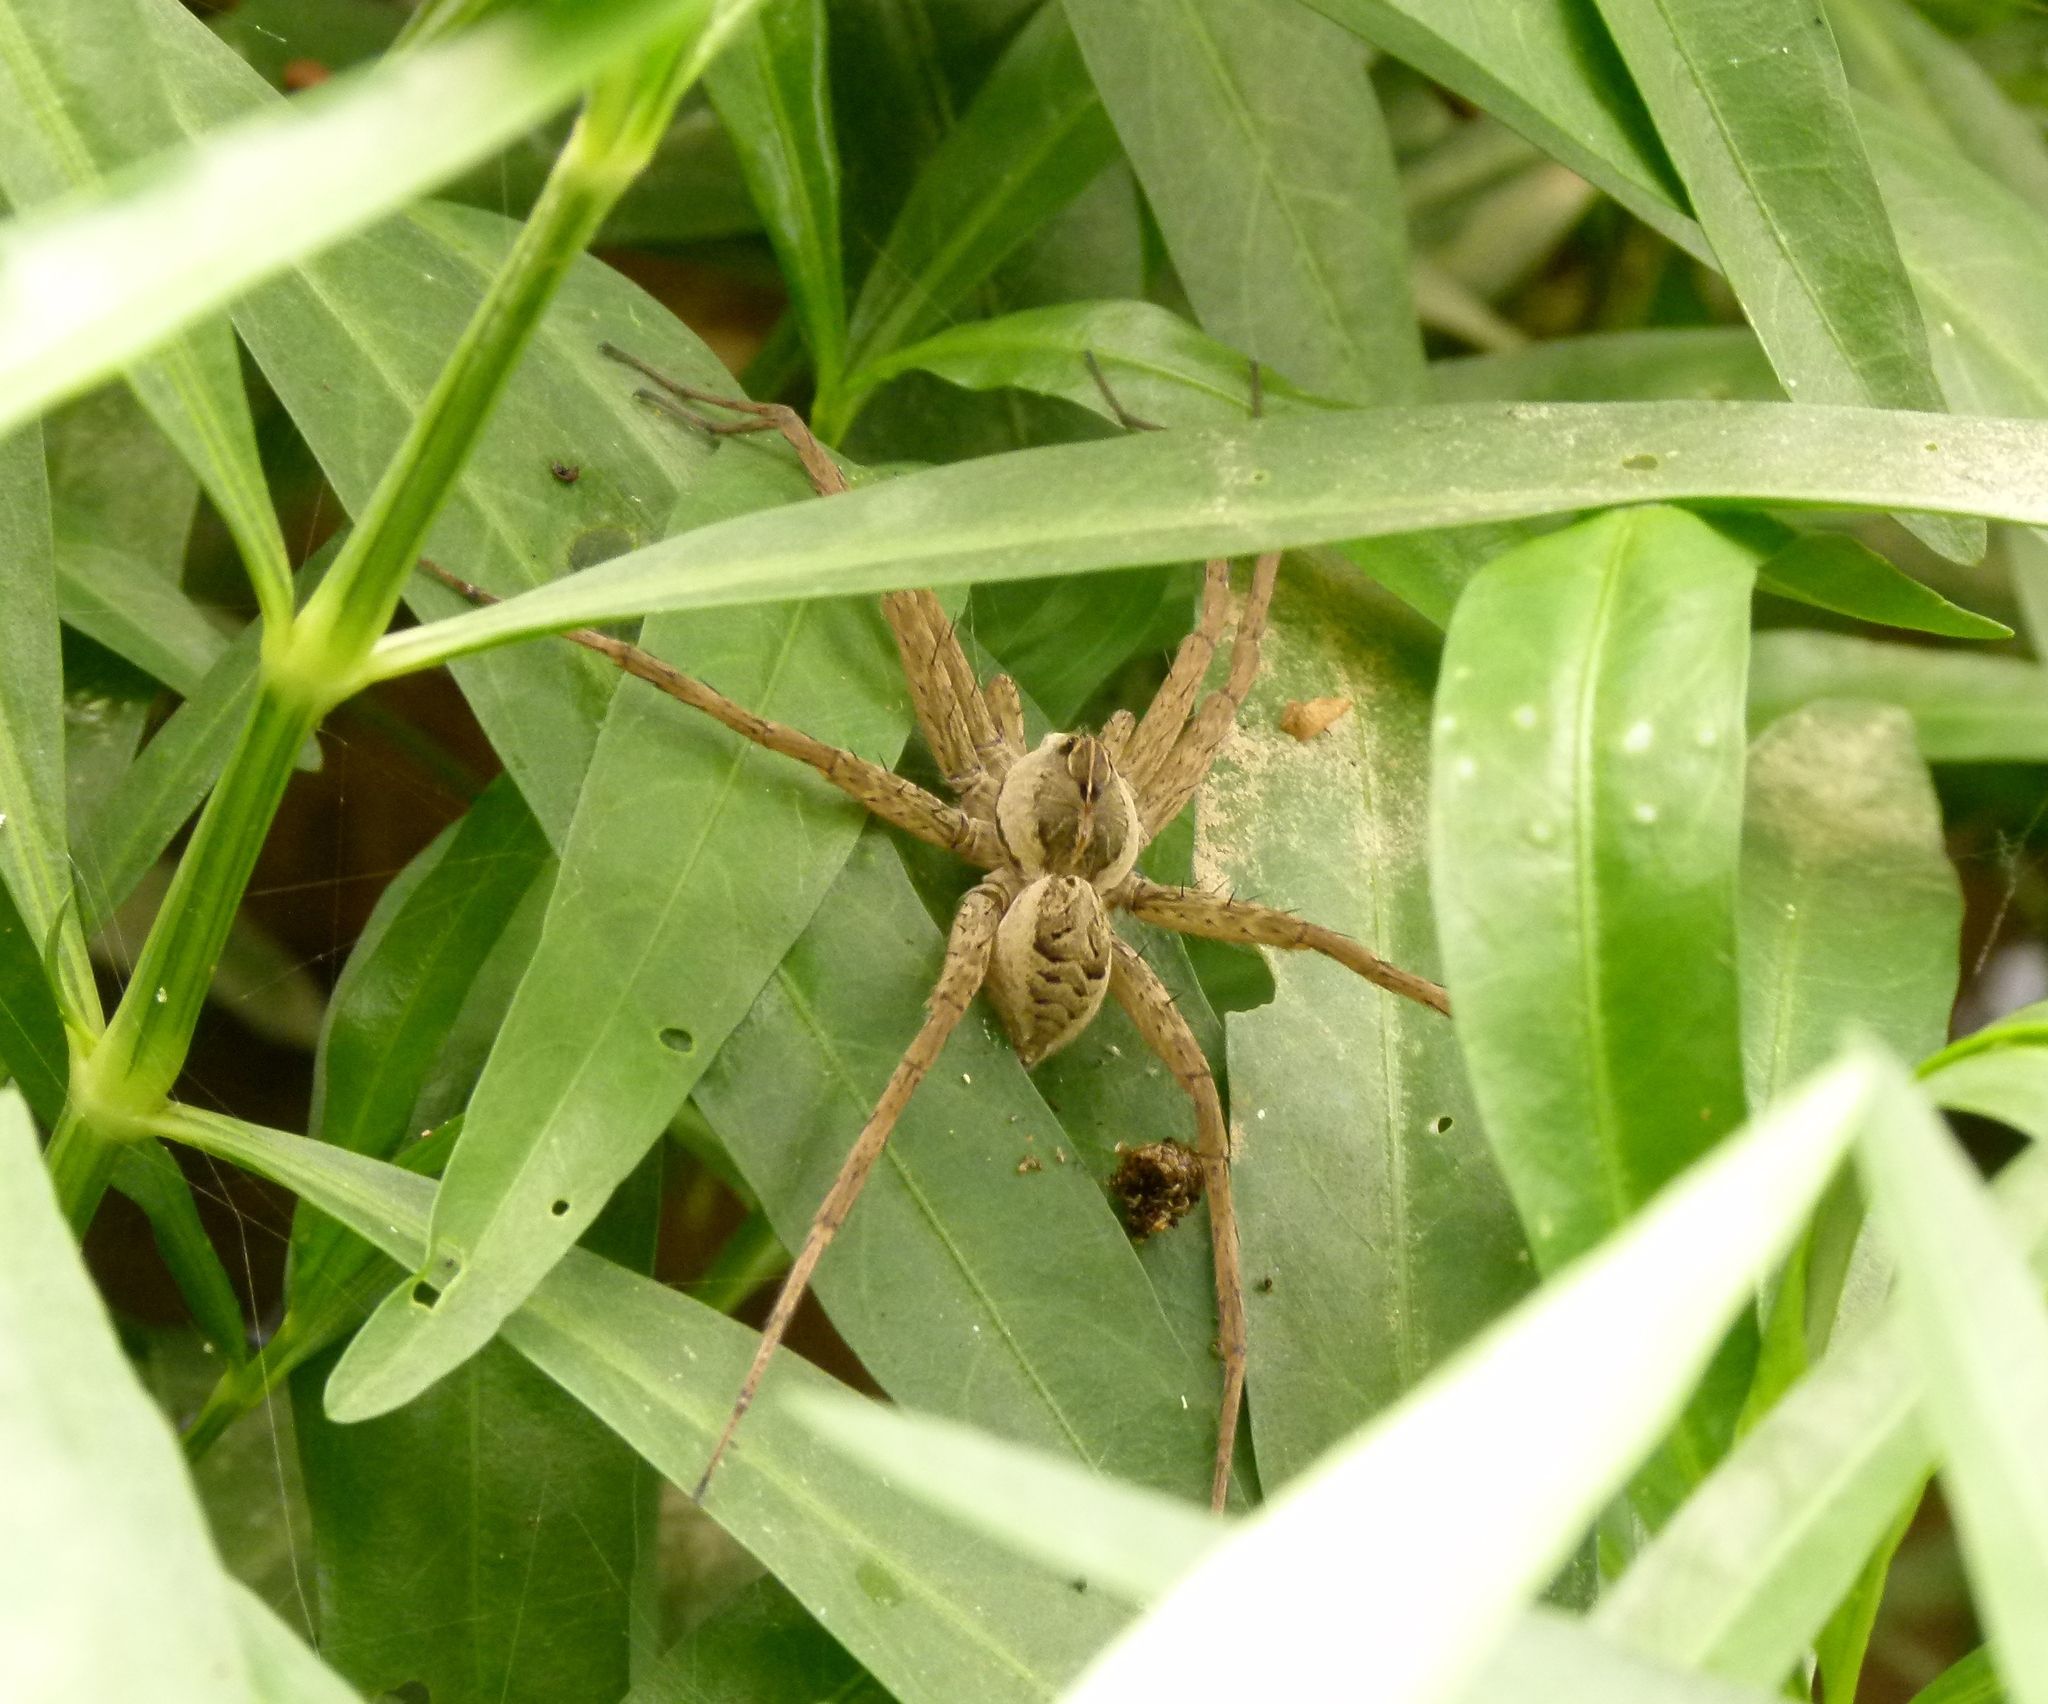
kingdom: Animalia
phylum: Arthropoda
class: Arachnida
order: Araneae
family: Pisauridae
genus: Dolomedes
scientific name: Dolomedes scriptus
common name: Striped fishing spider
